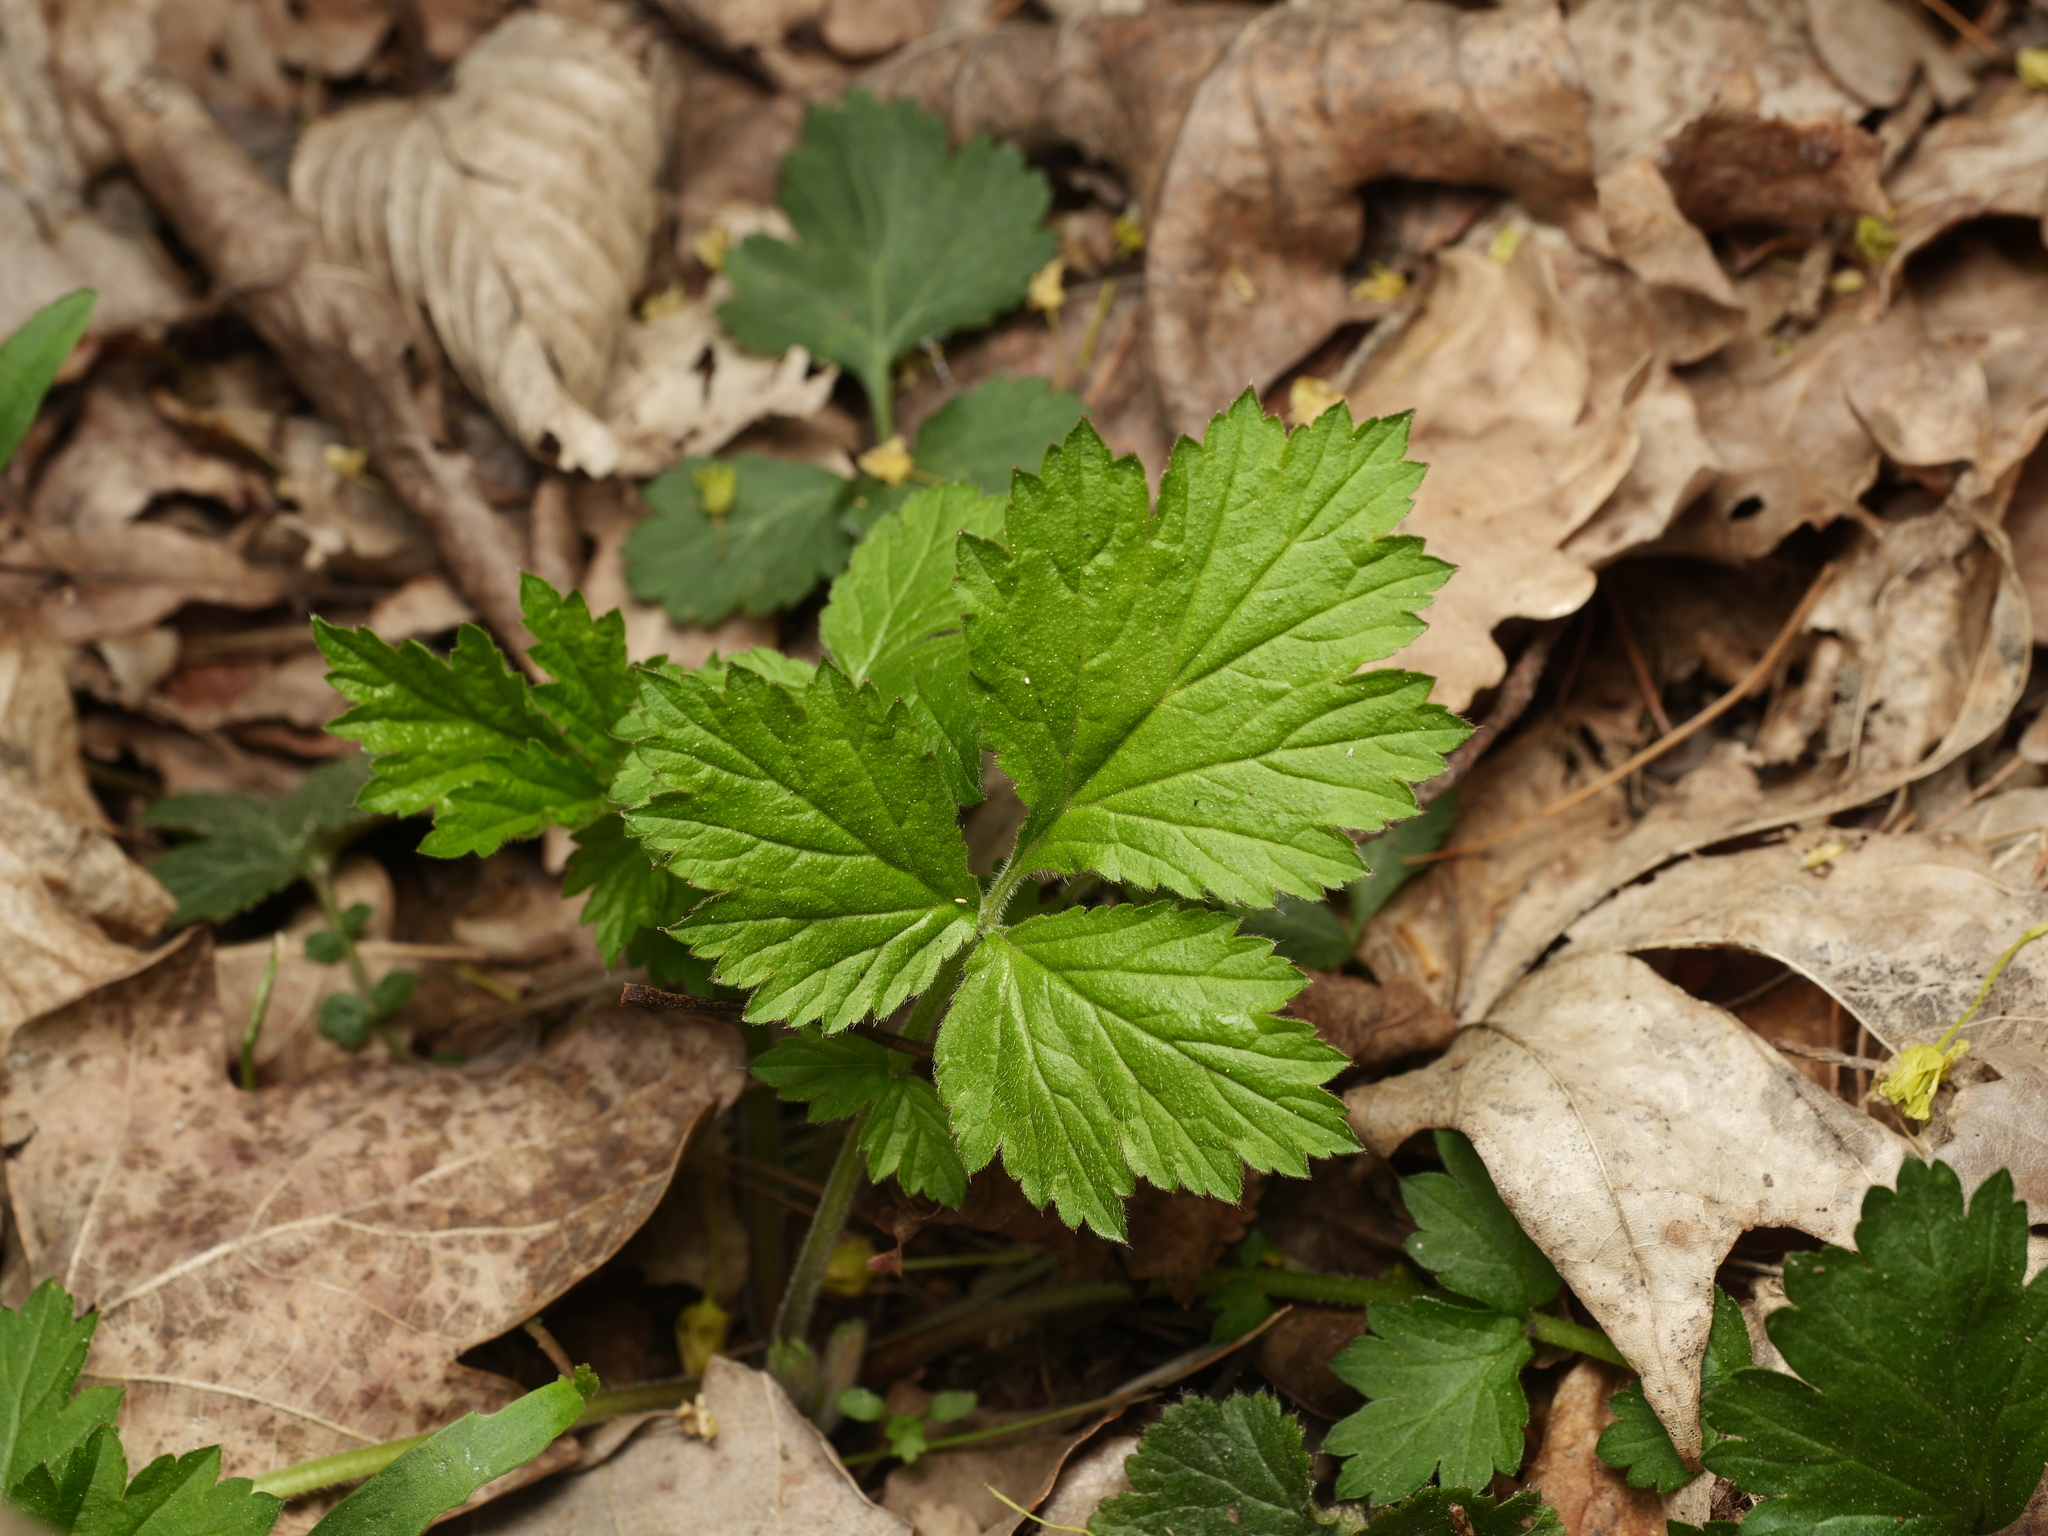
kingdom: Plantae
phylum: Tracheophyta
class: Magnoliopsida
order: Rosales
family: Rosaceae
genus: Geum
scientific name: Geum urbanum
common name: Wood avens
